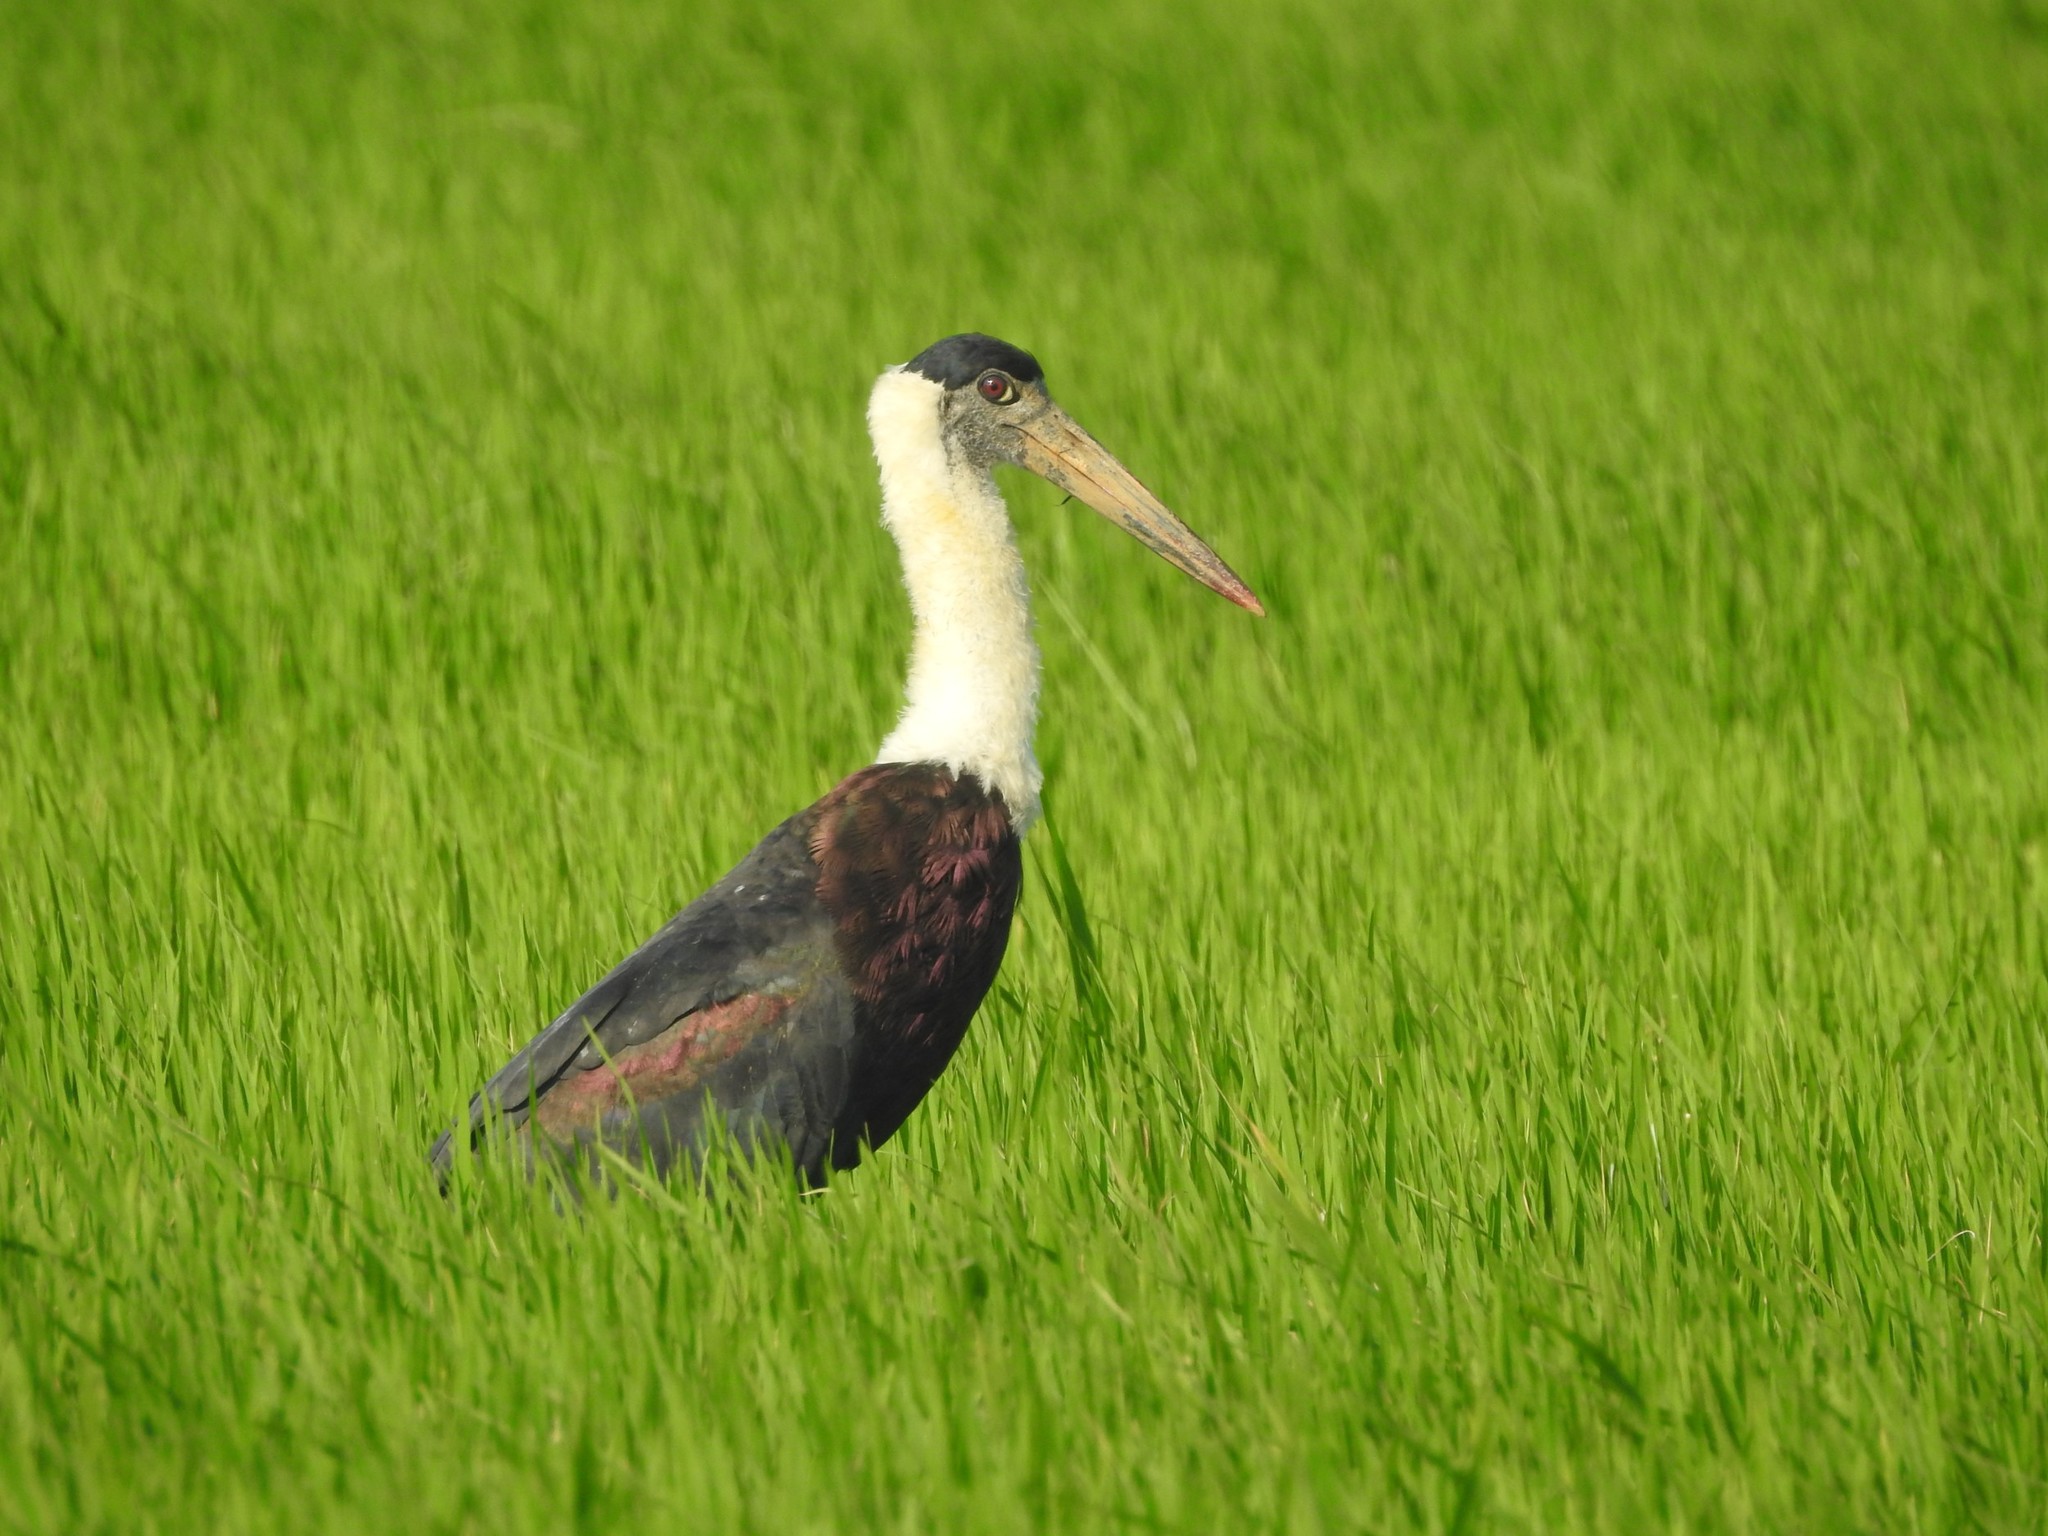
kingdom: Animalia
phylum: Chordata
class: Aves
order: Ciconiiformes
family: Ciconiidae
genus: Ciconia
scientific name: Ciconia episcopus
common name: Woolly-necked stork
